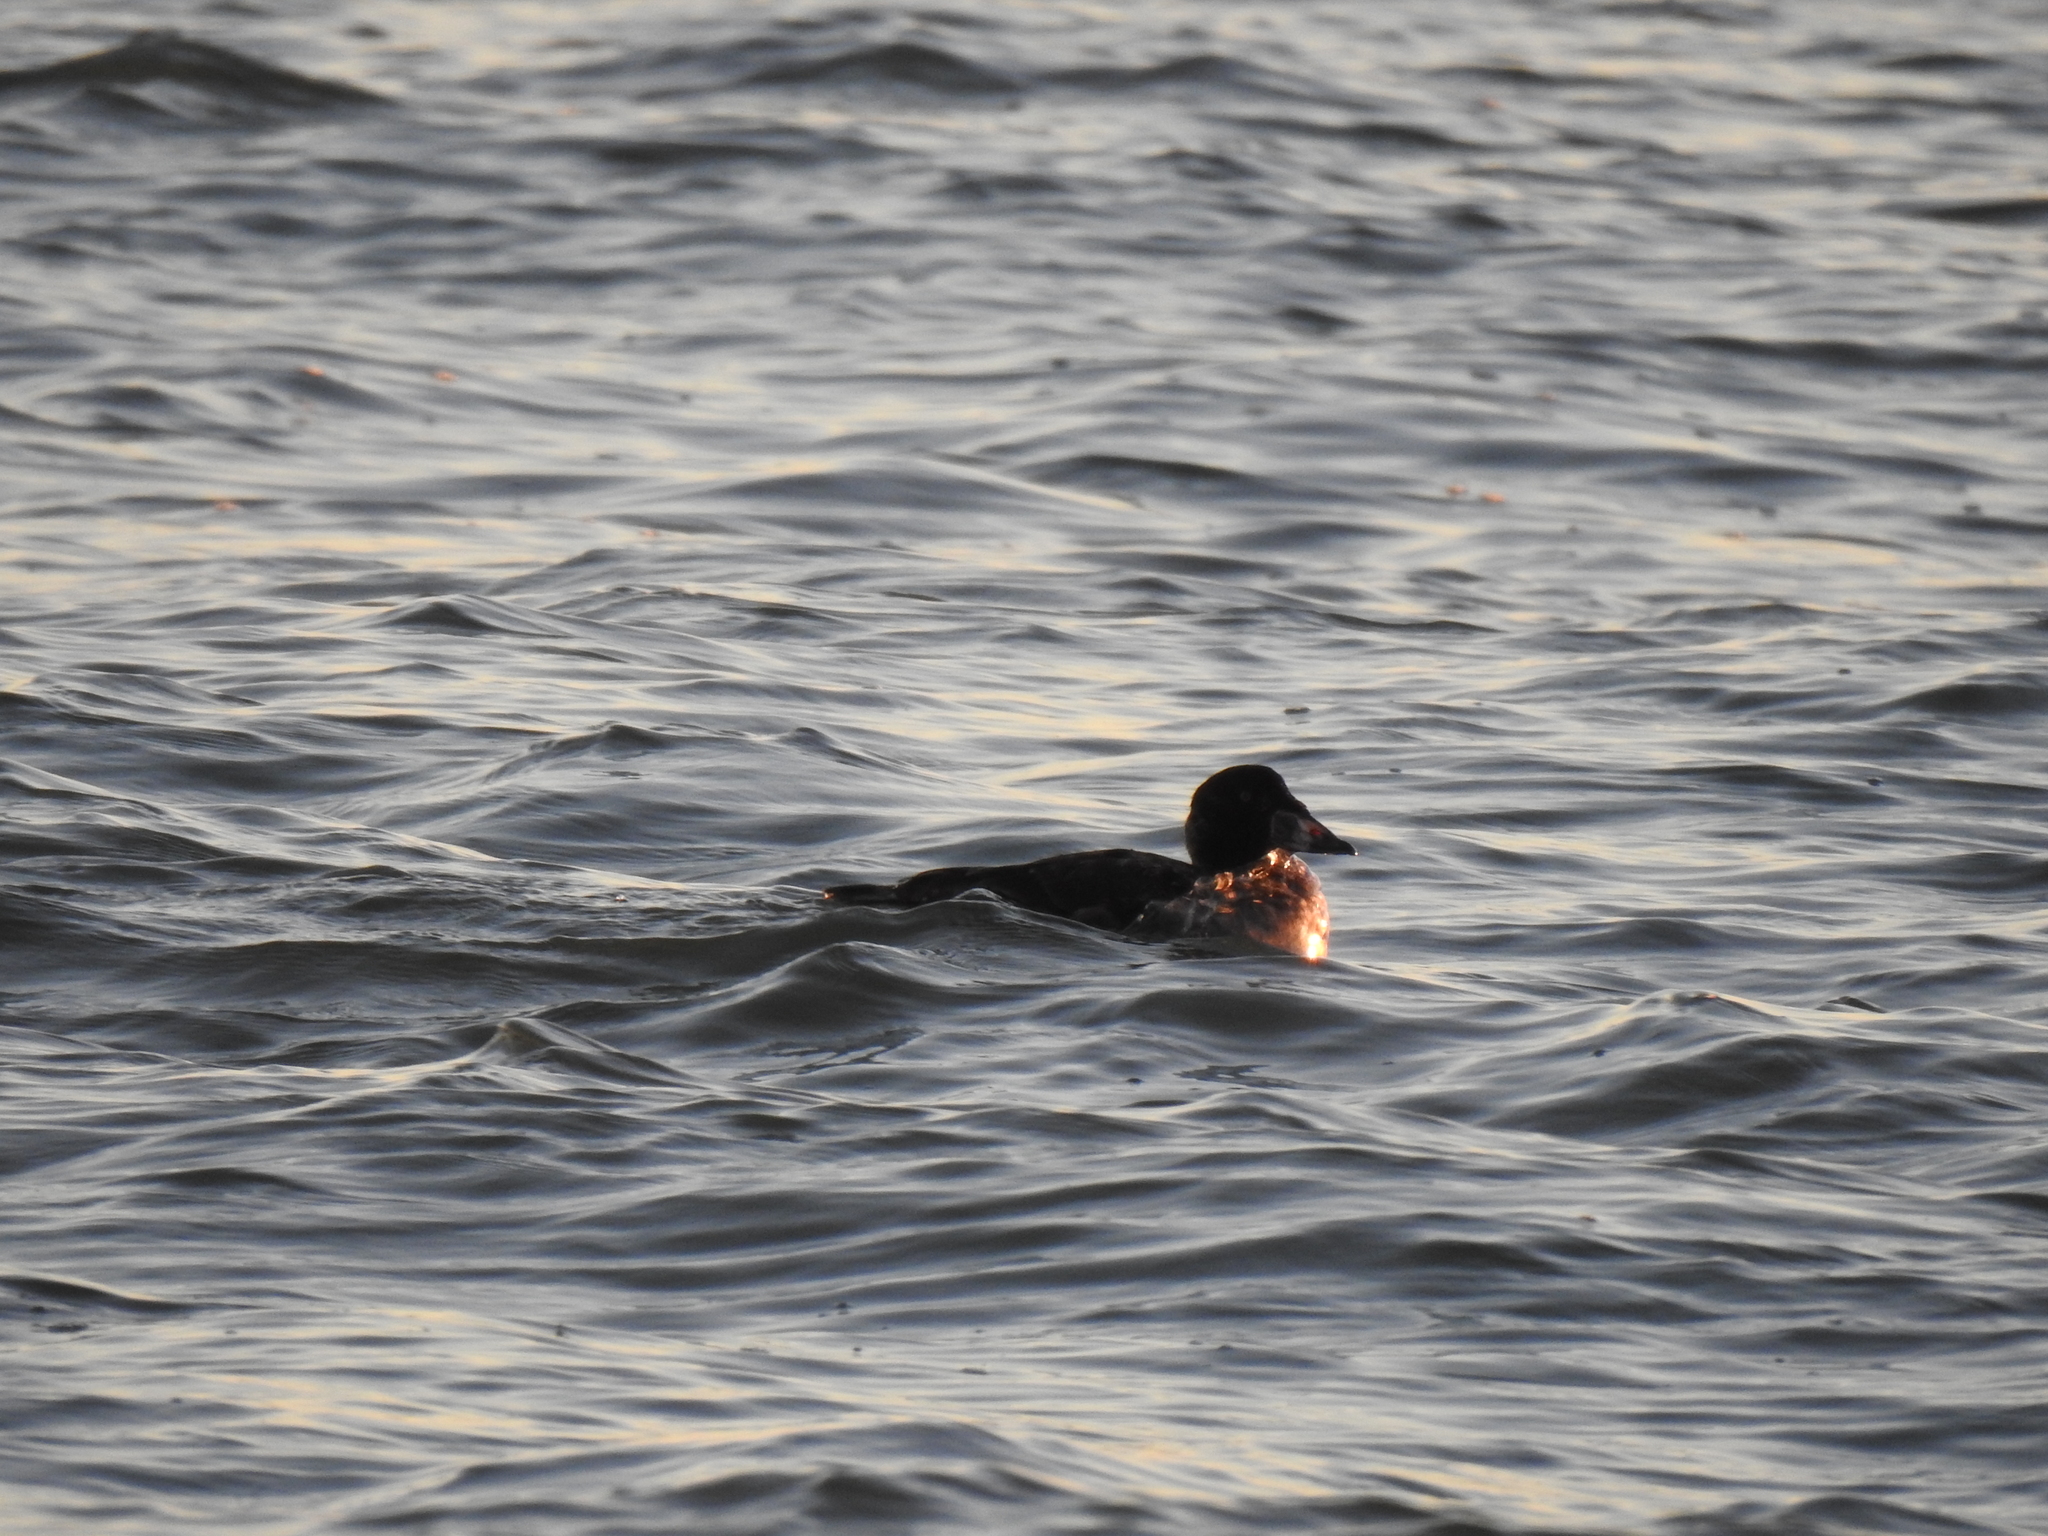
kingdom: Animalia
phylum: Chordata
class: Aves
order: Anseriformes
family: Anatidae
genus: Melanitta
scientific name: Melanitta perspicillata
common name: Surf scoter
